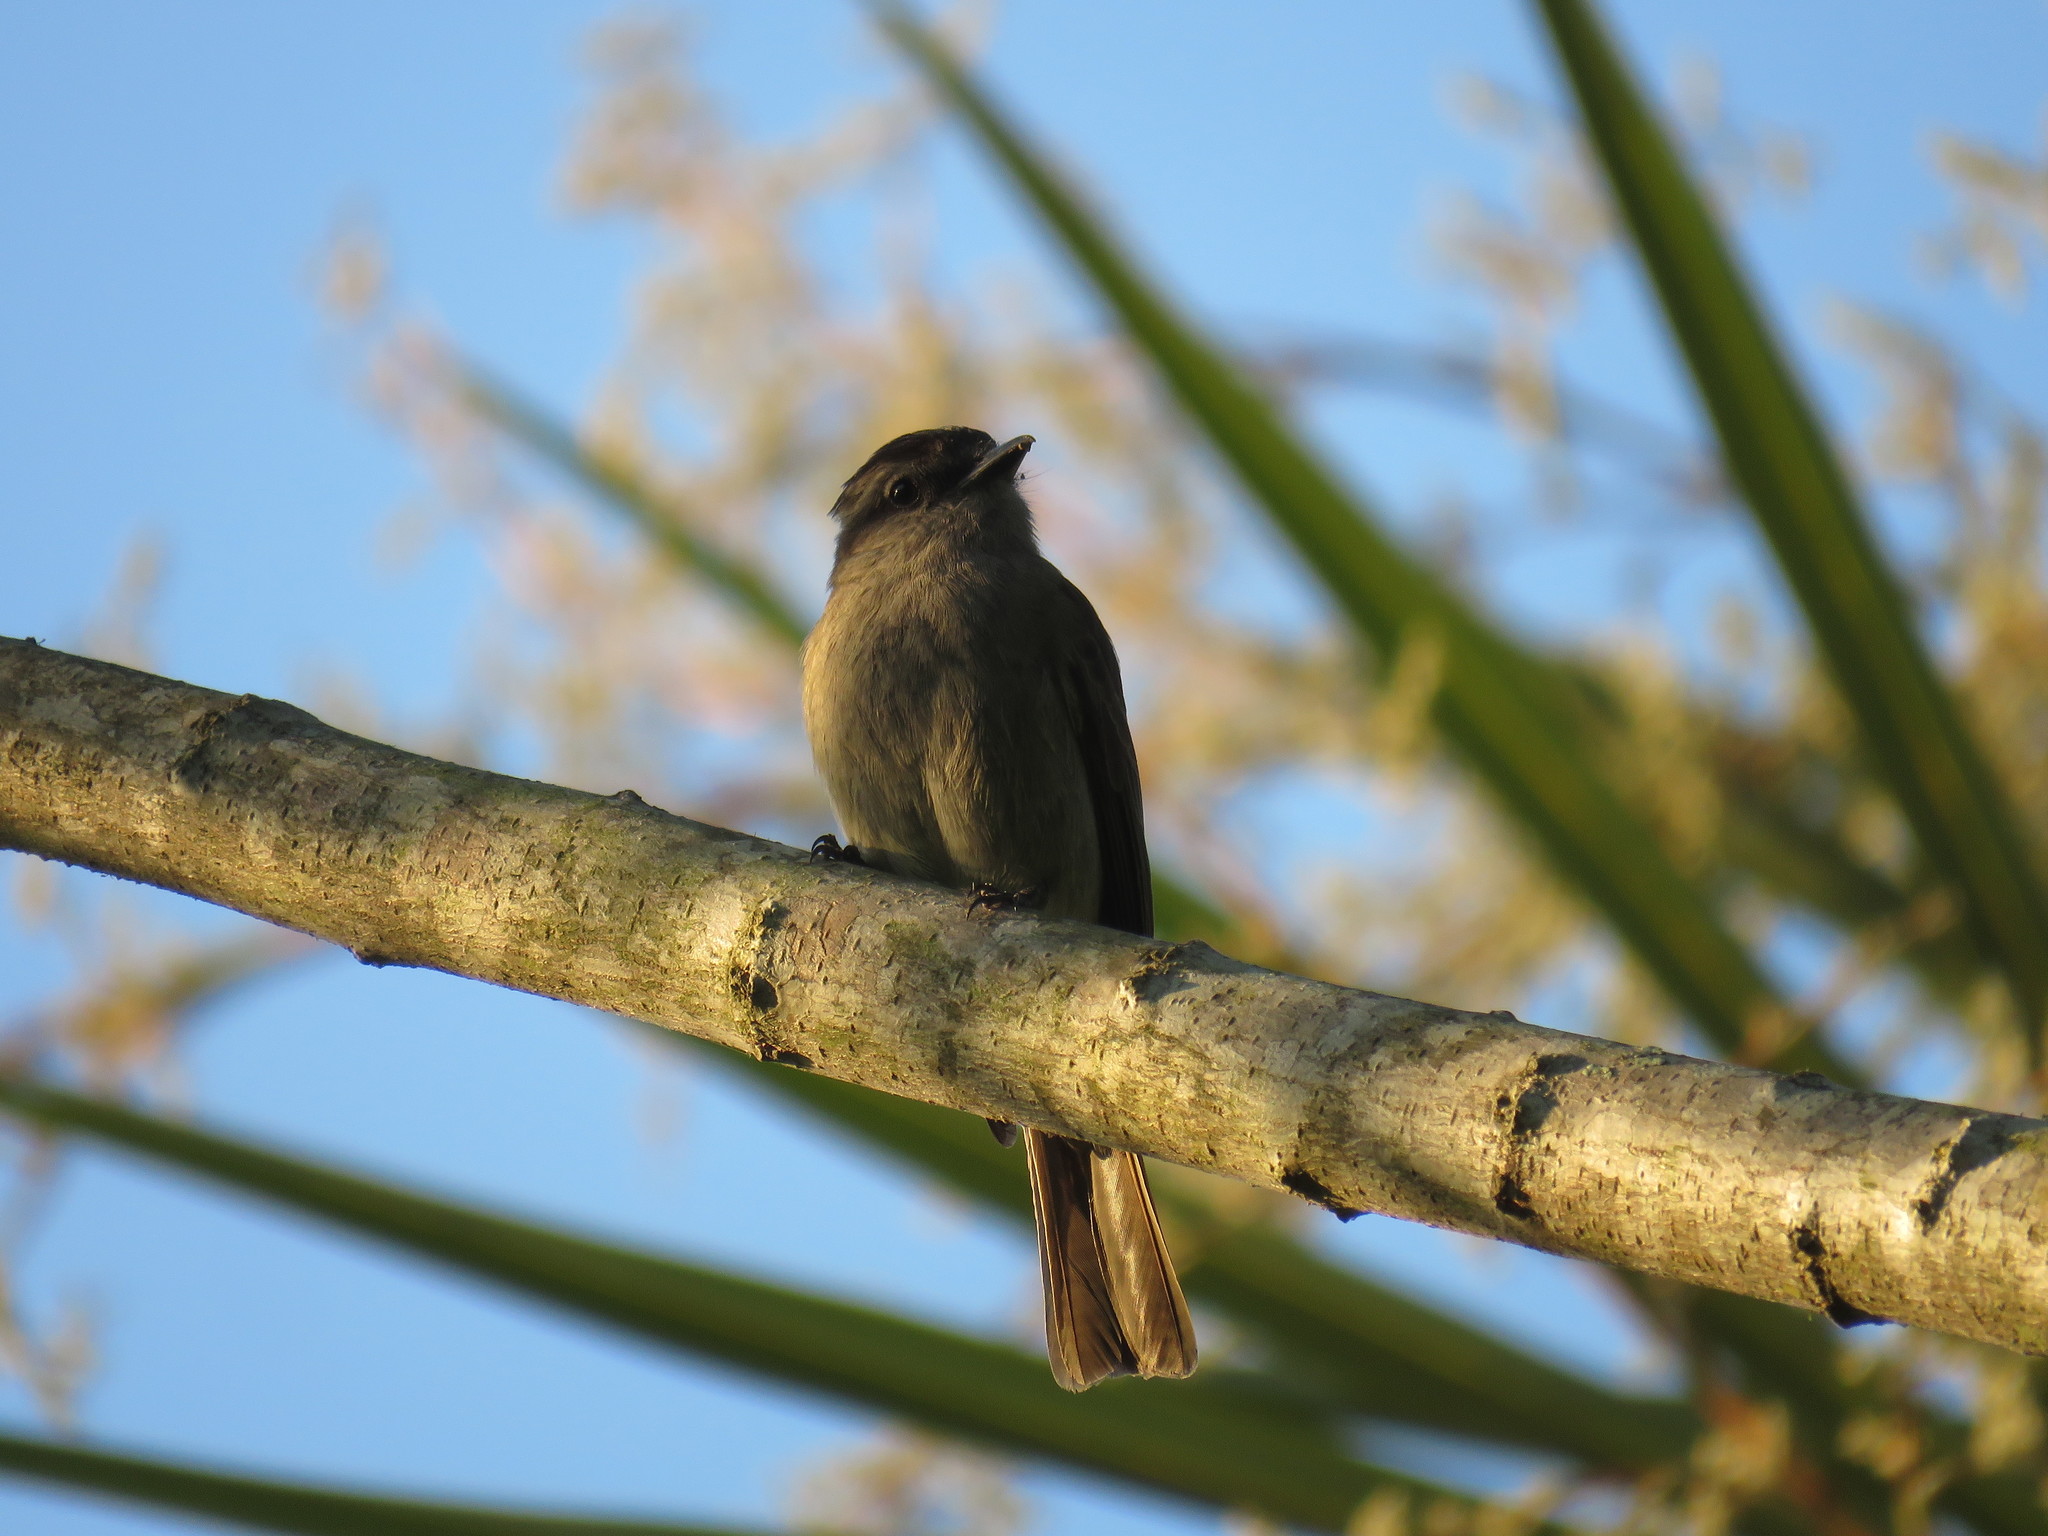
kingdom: Animalia
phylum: Chordata
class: Aves
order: Passeriformes
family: Tyrannidae
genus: Empidonomus
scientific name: Empidonomus aurantioatrocristatus
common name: Crowned slaty flycatcher
